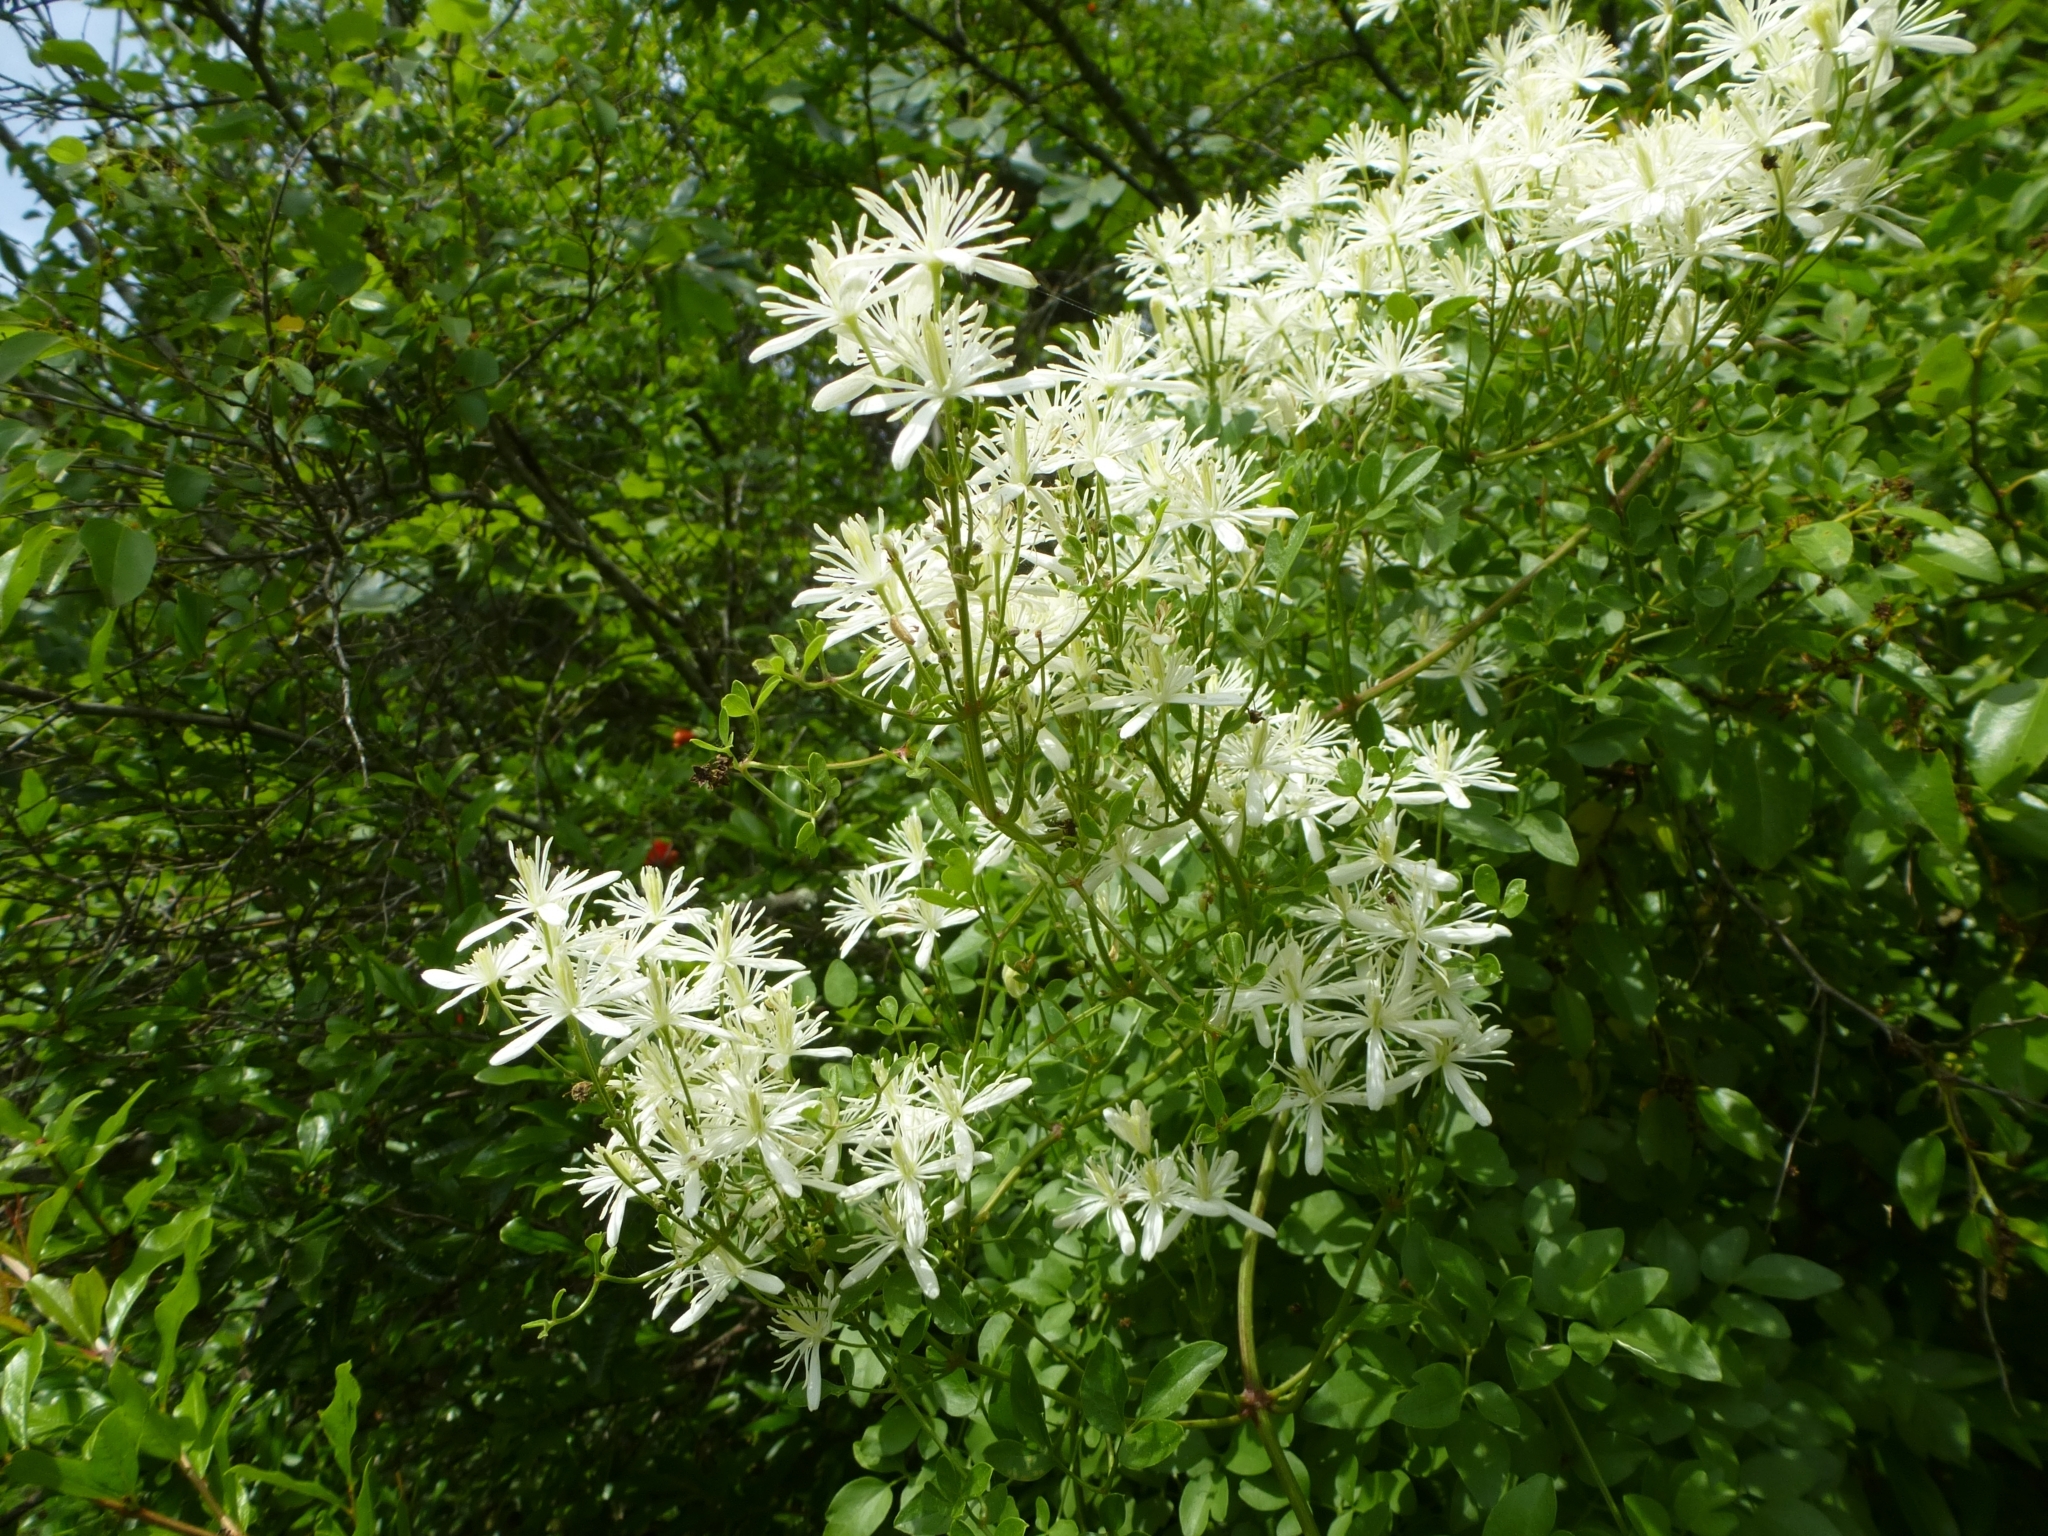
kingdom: Plantae
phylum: Tracheophyta
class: Magnoliopsida
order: Ranunculales
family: Ranunculaceae
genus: Clematis
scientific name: Clematis flammula
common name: Virgin's-bower
